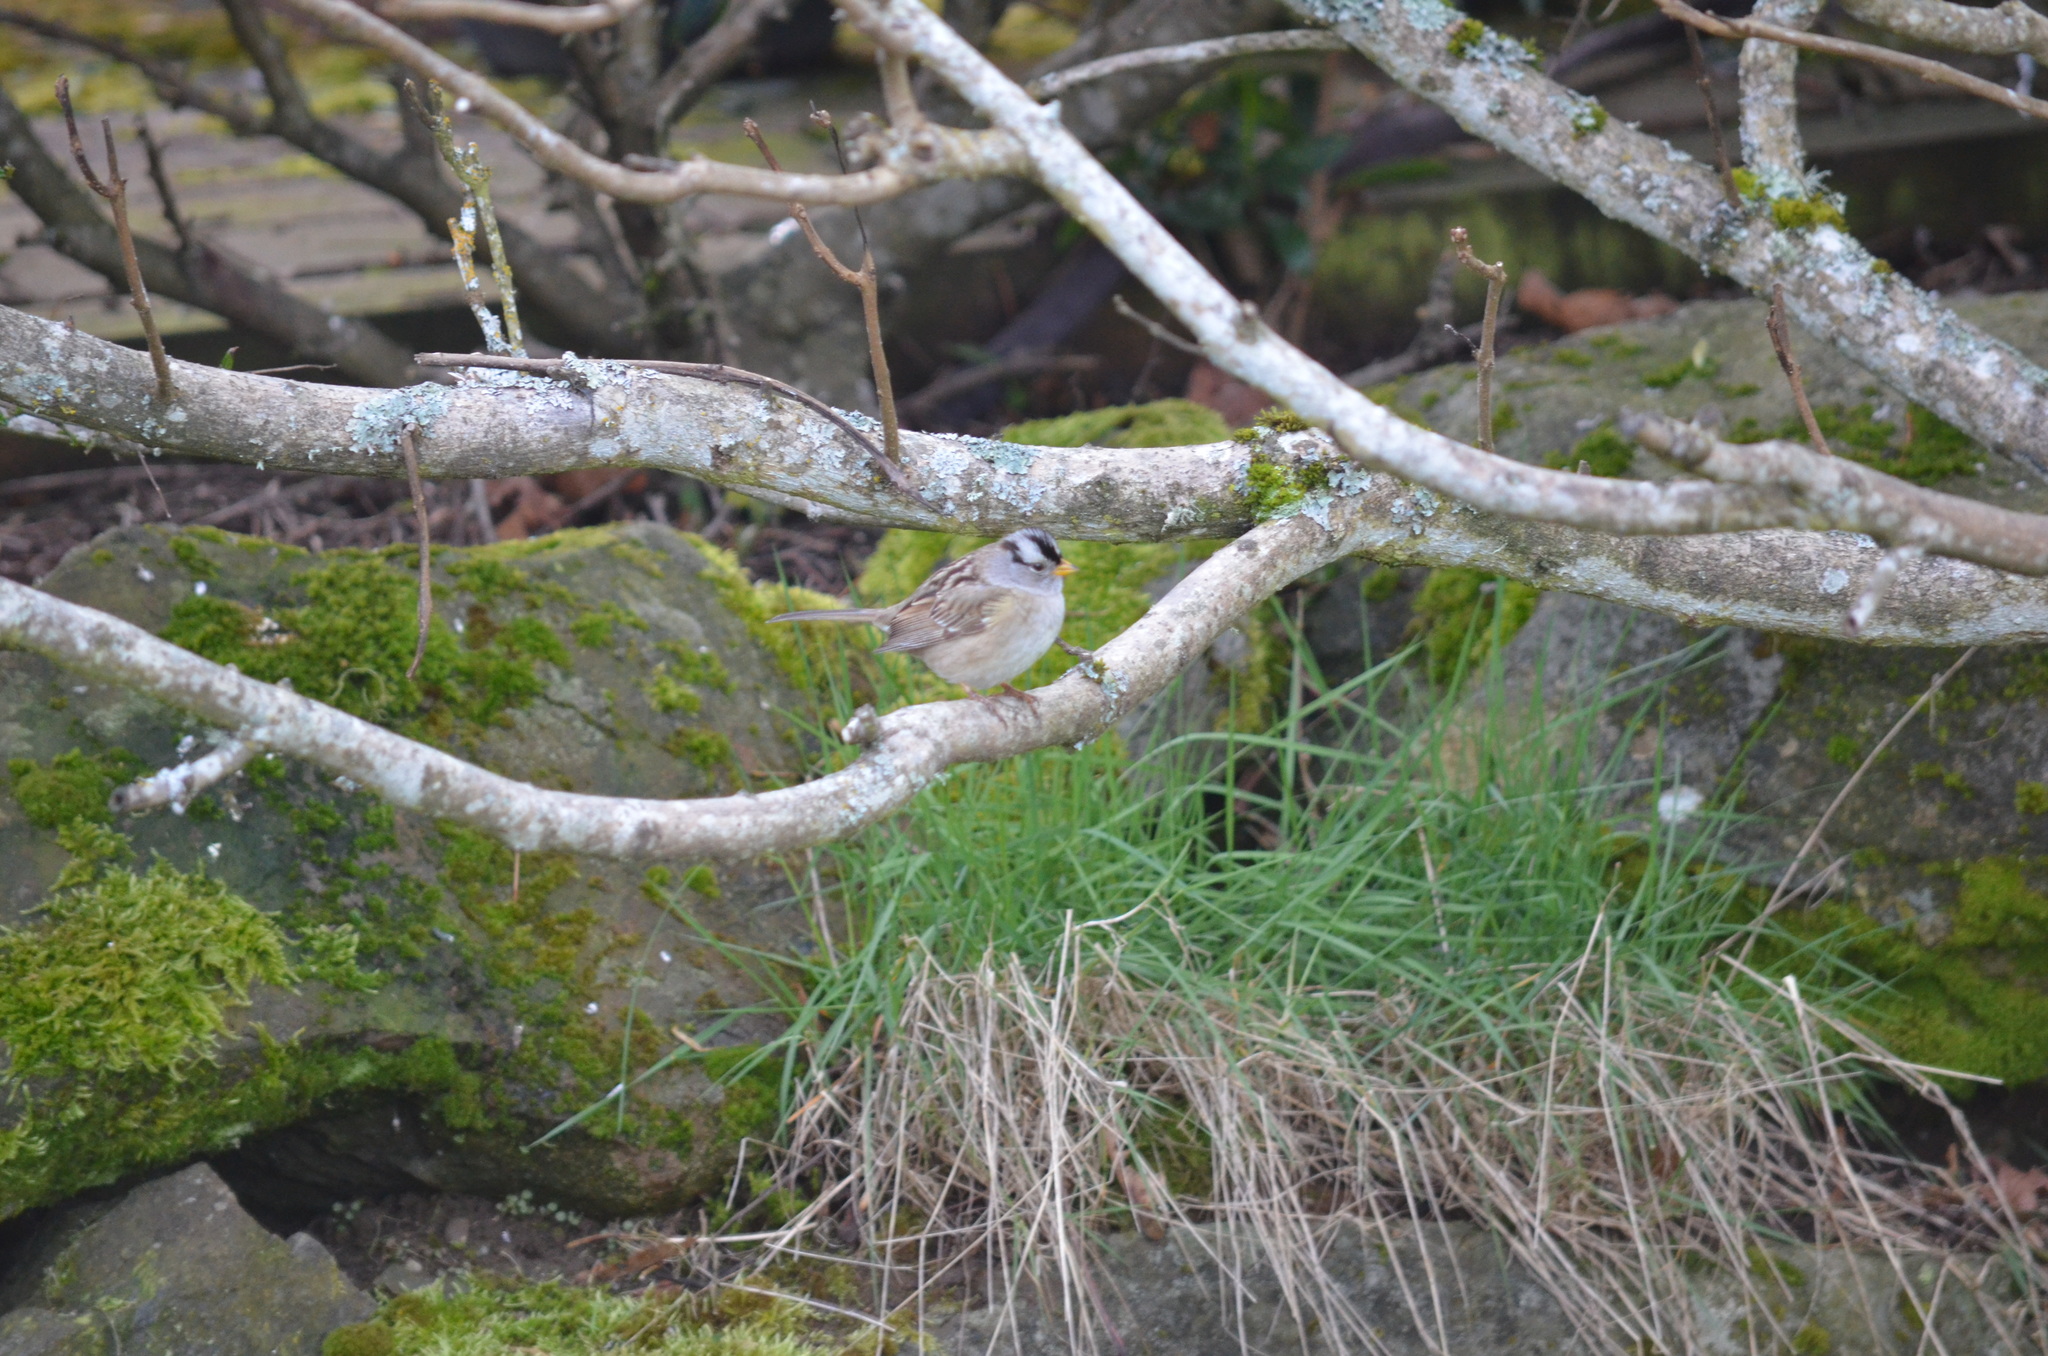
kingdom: Animalia
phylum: Chordata
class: Aves
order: Passeriformes
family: Passerellidae
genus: Zonotrichia
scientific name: Zonotrichia leucophrys
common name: White-crowned sparrow
